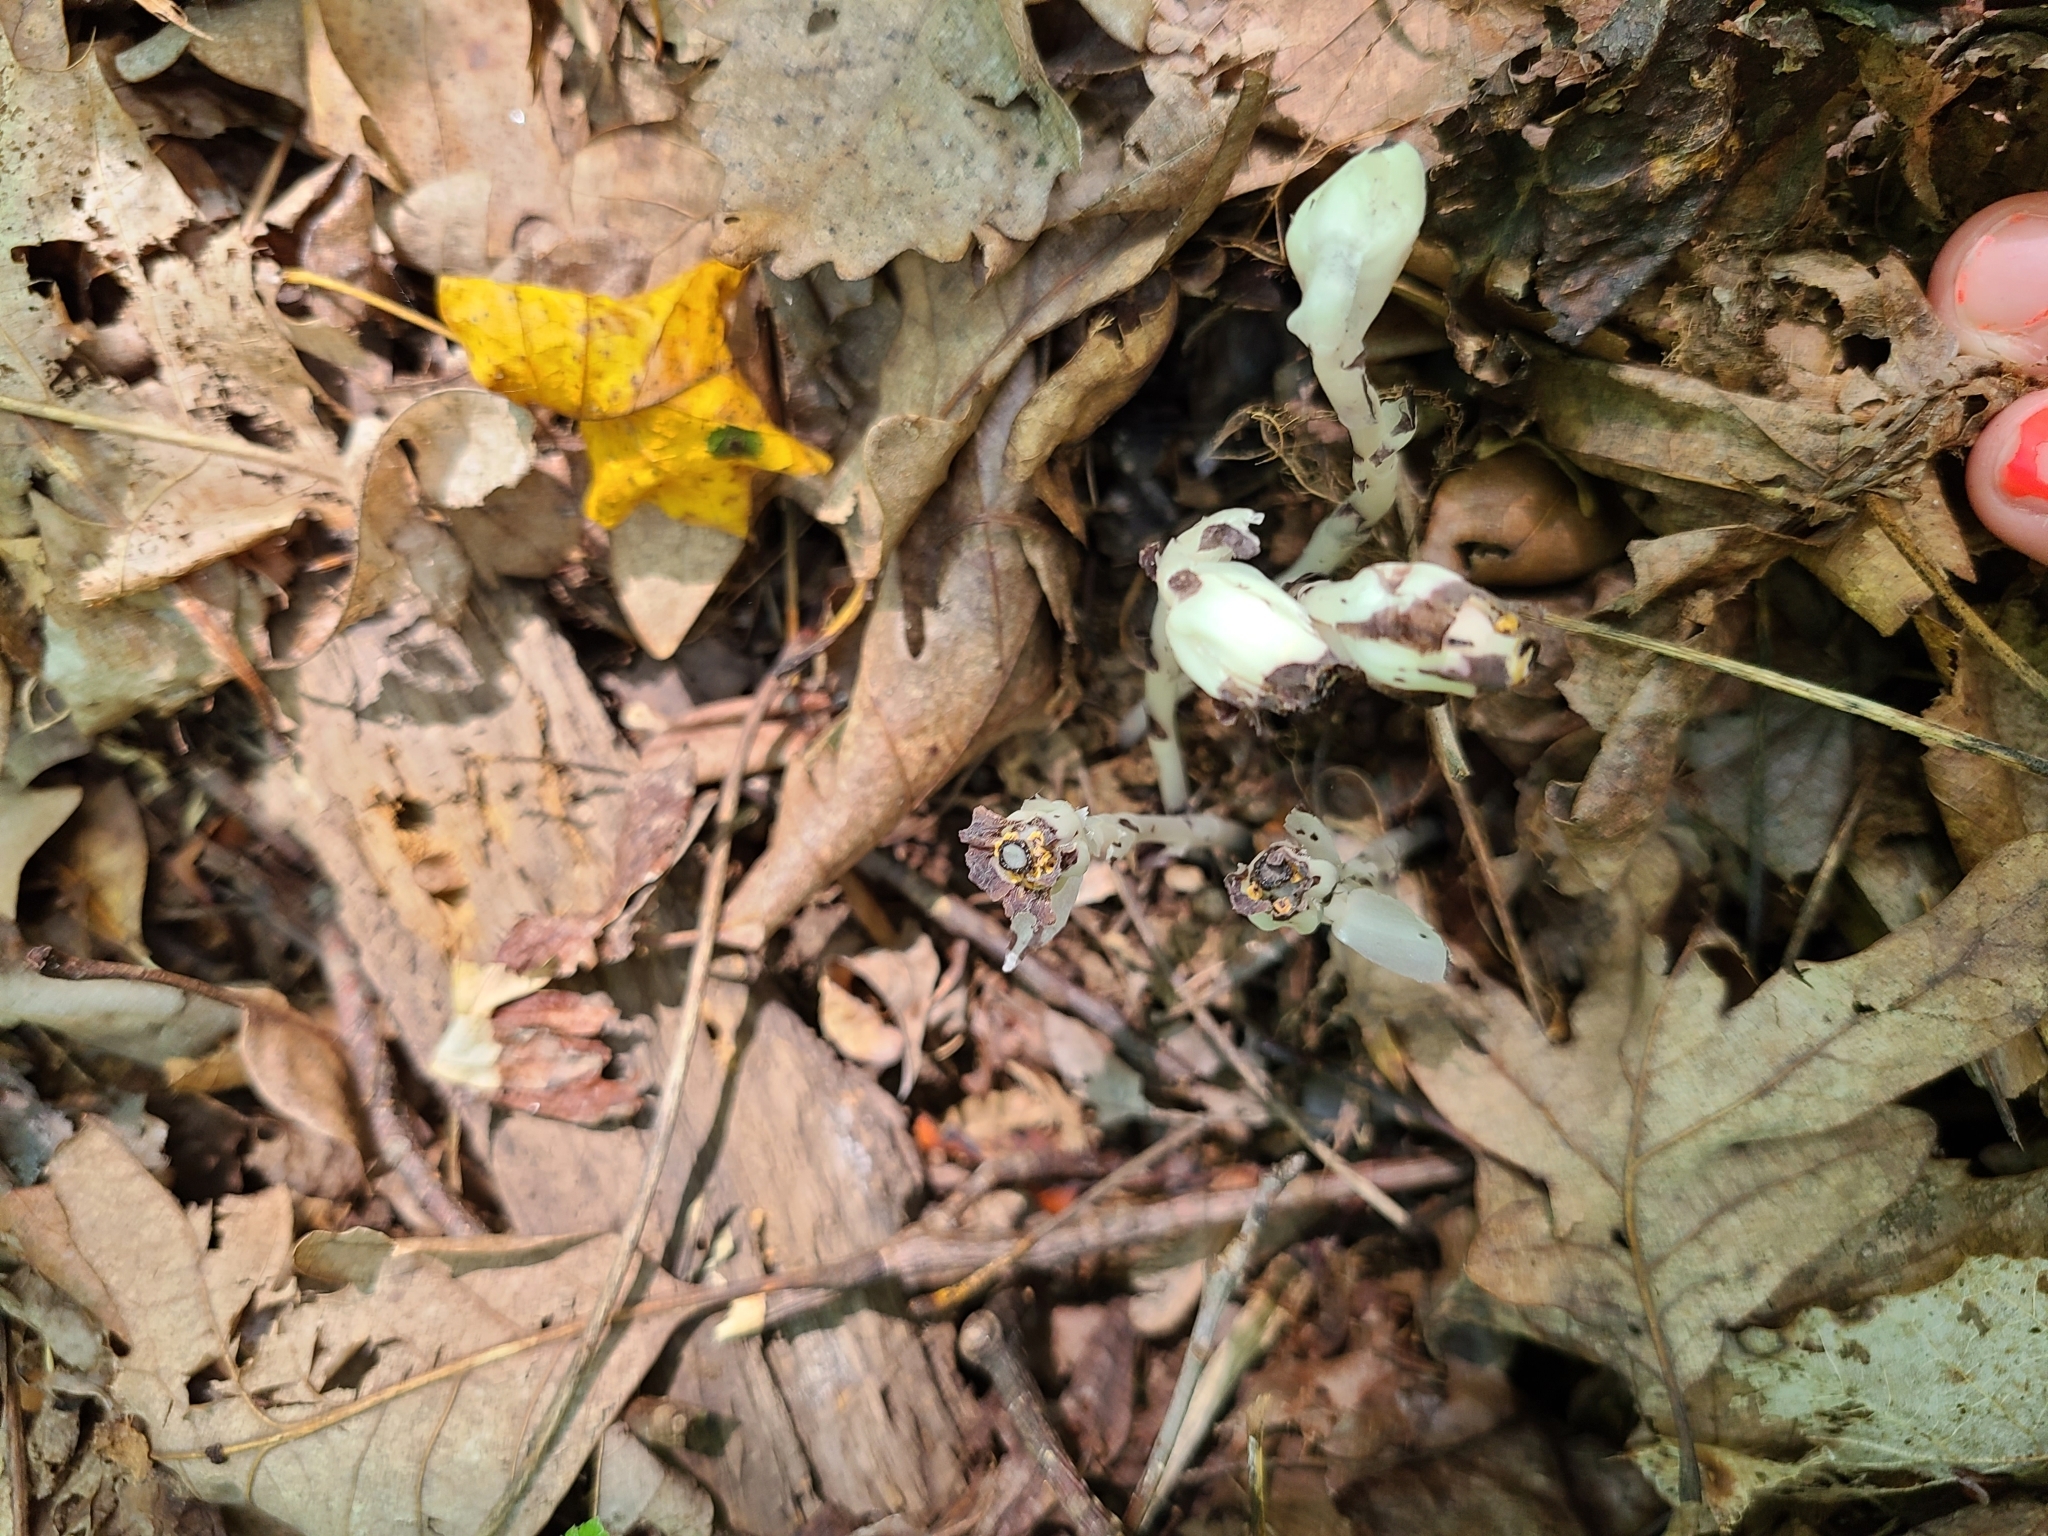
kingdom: Plantae
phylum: Tracheophyta
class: Magnoliopsida
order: Ericales
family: Ericaceae
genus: Monotropa
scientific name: Monotropa uniflora
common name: Convulsion root
